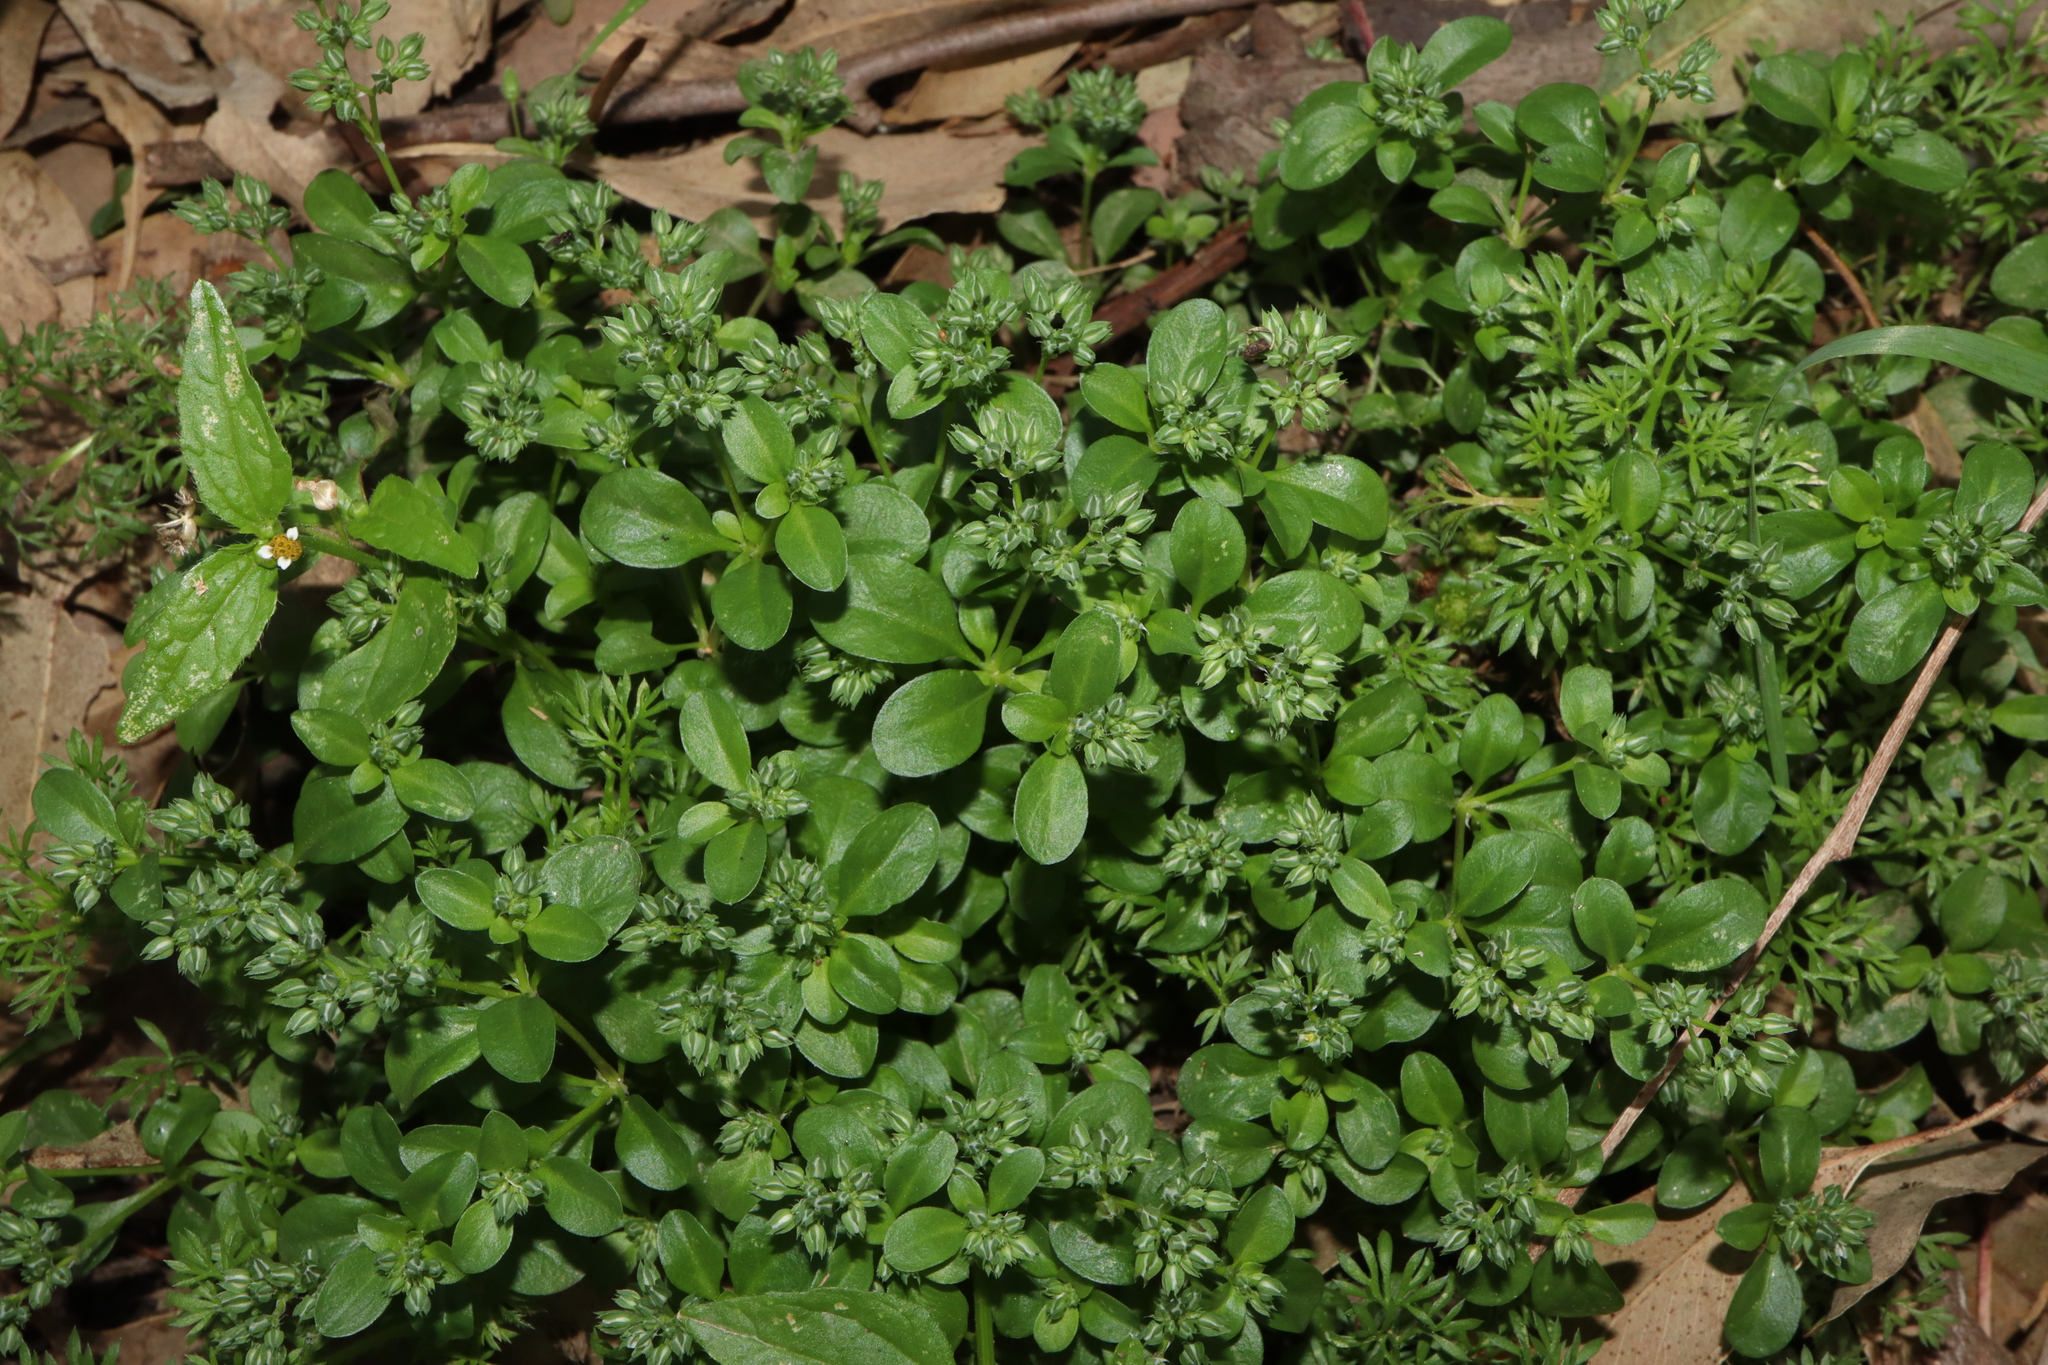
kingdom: Plantae
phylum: Tracheophyta
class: Magnoliopsida
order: Caryophyllales
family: Caryophyllaceae
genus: Polycarpon
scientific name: Polycarpon tetraphyllum
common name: Four-leaved all-seed
